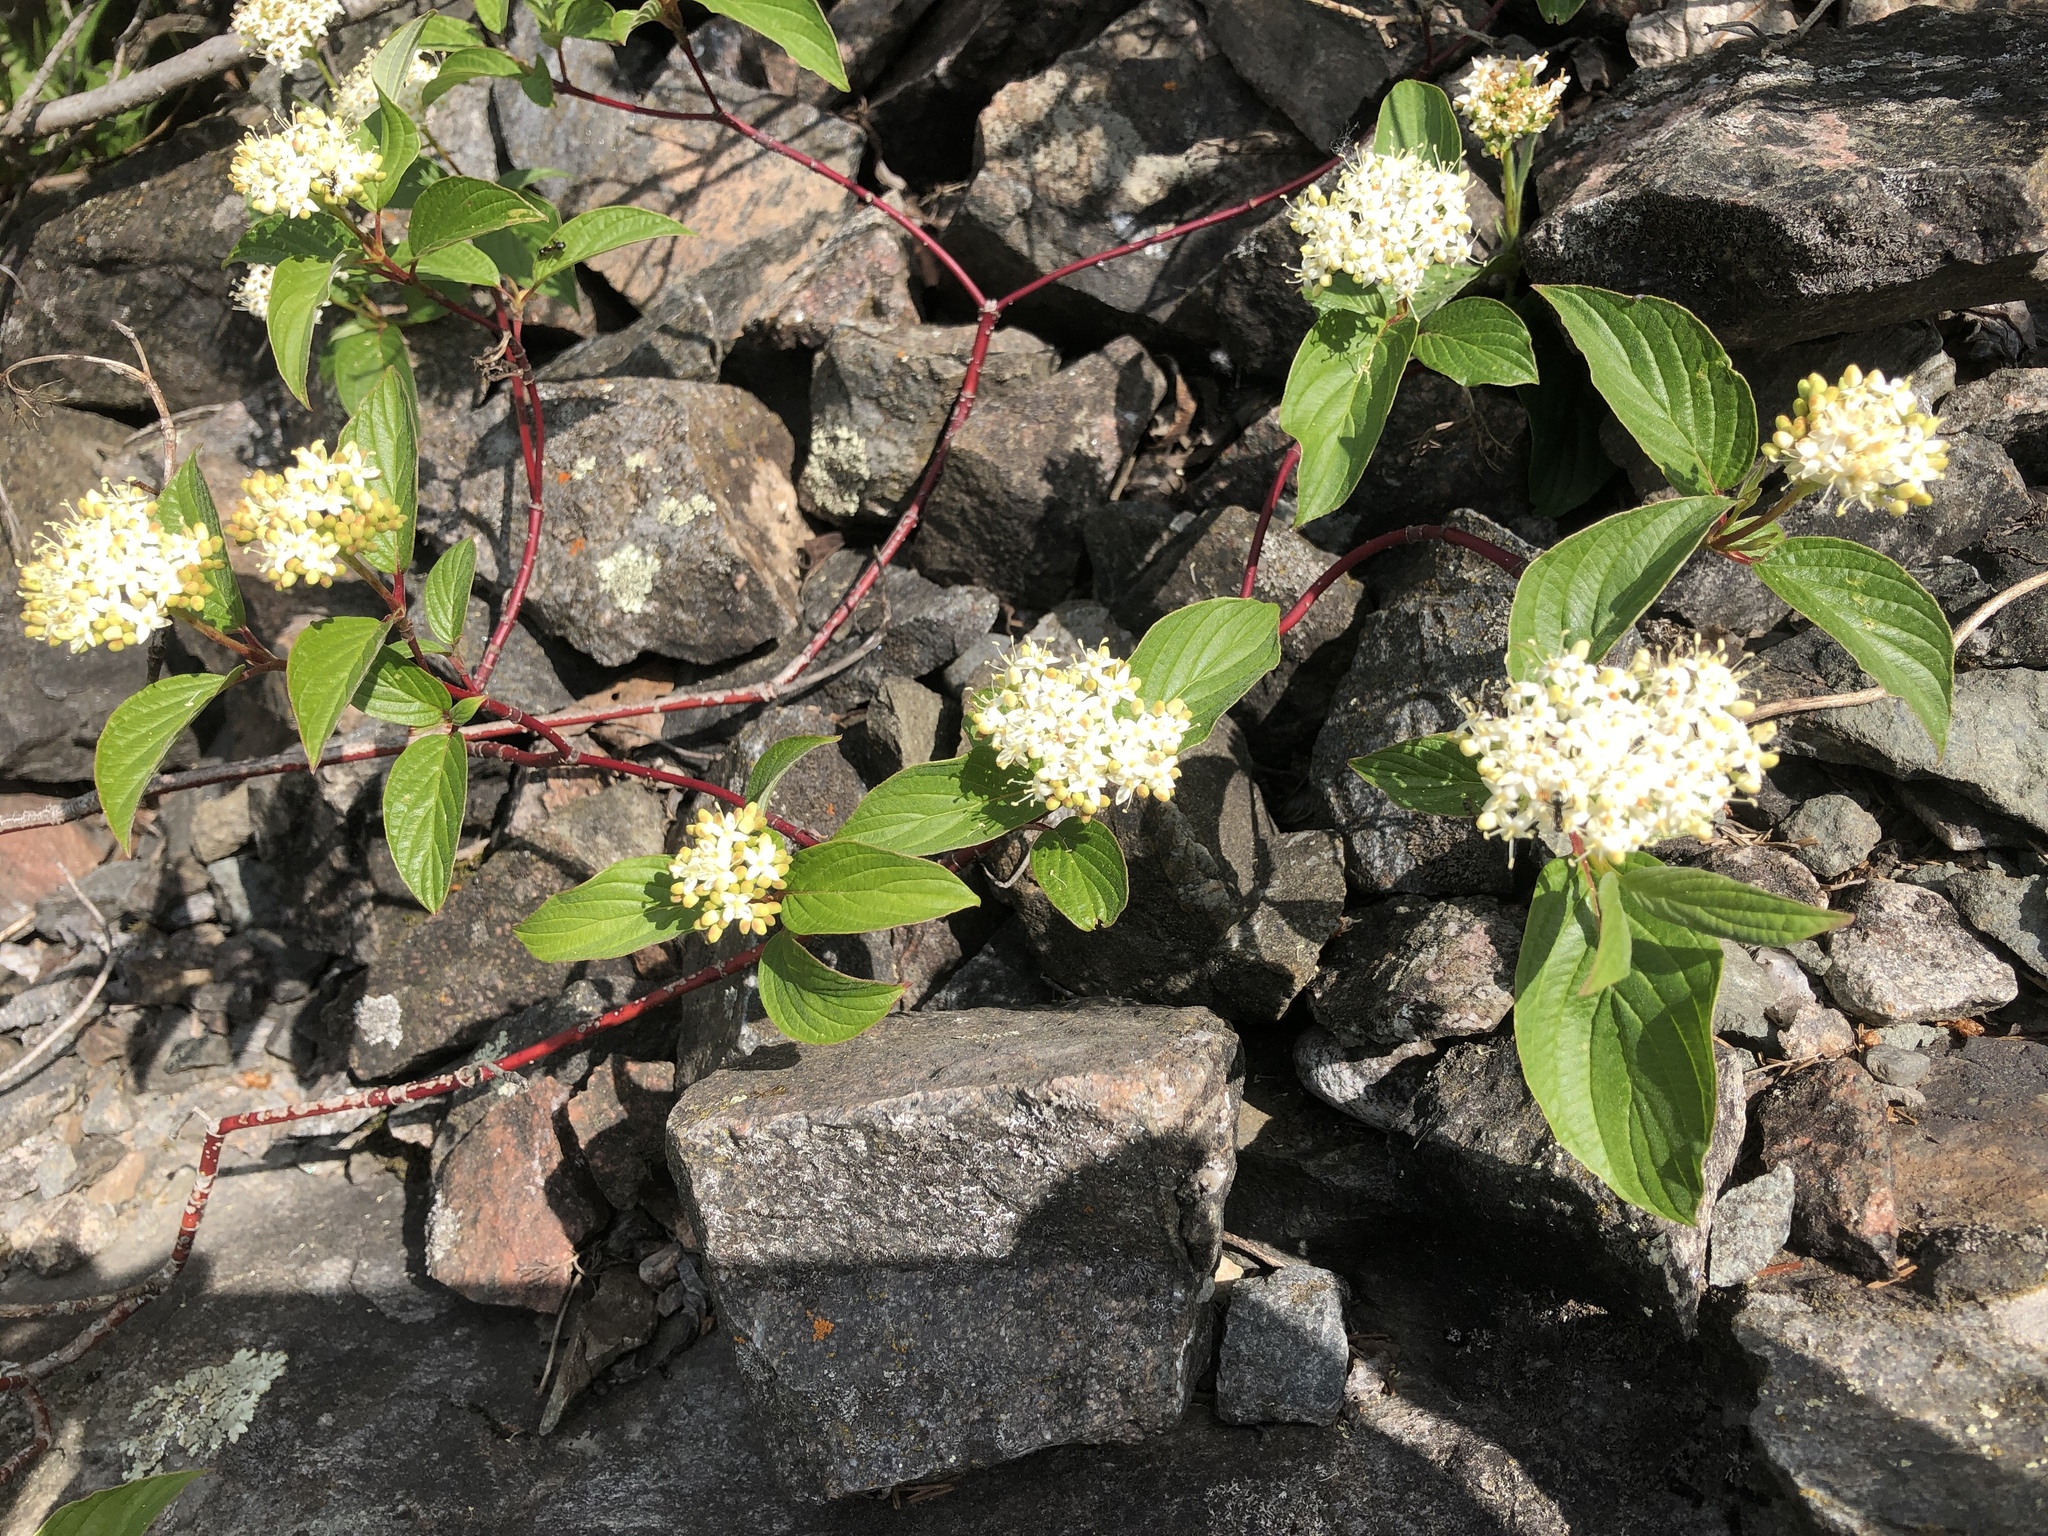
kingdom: Plantae
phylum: Tracheophyta
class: Magnoliopsida
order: Cornales
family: Cornaceae
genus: Cornus
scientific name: Cornus sericea
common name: Red-osier dogwood
